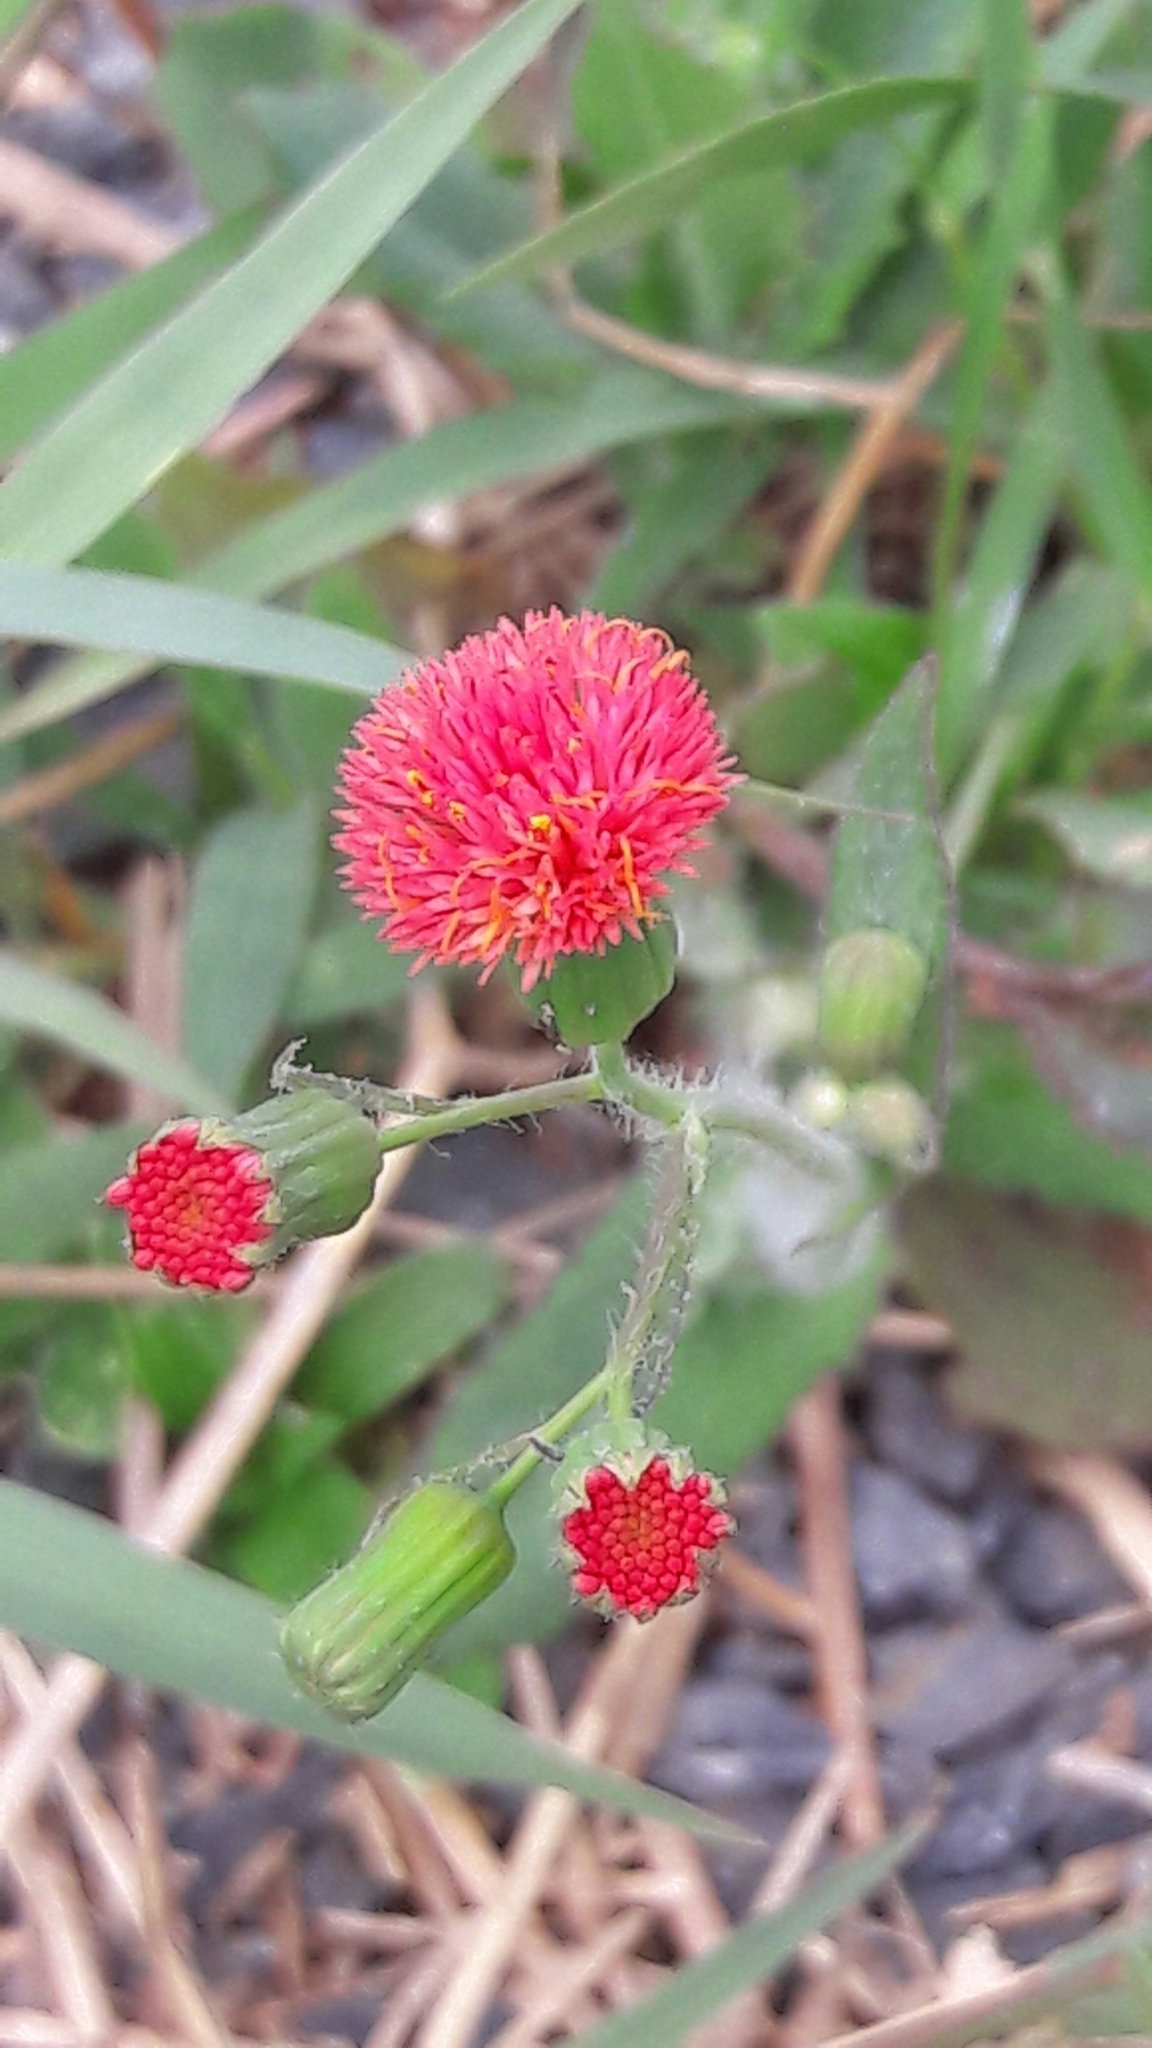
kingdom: Plantae
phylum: Tracheophyta
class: Magnoliopsida
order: Asterales
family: Asteraceae
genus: Emilia
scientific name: Emilia fosbergii
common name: Florida tasselflower
